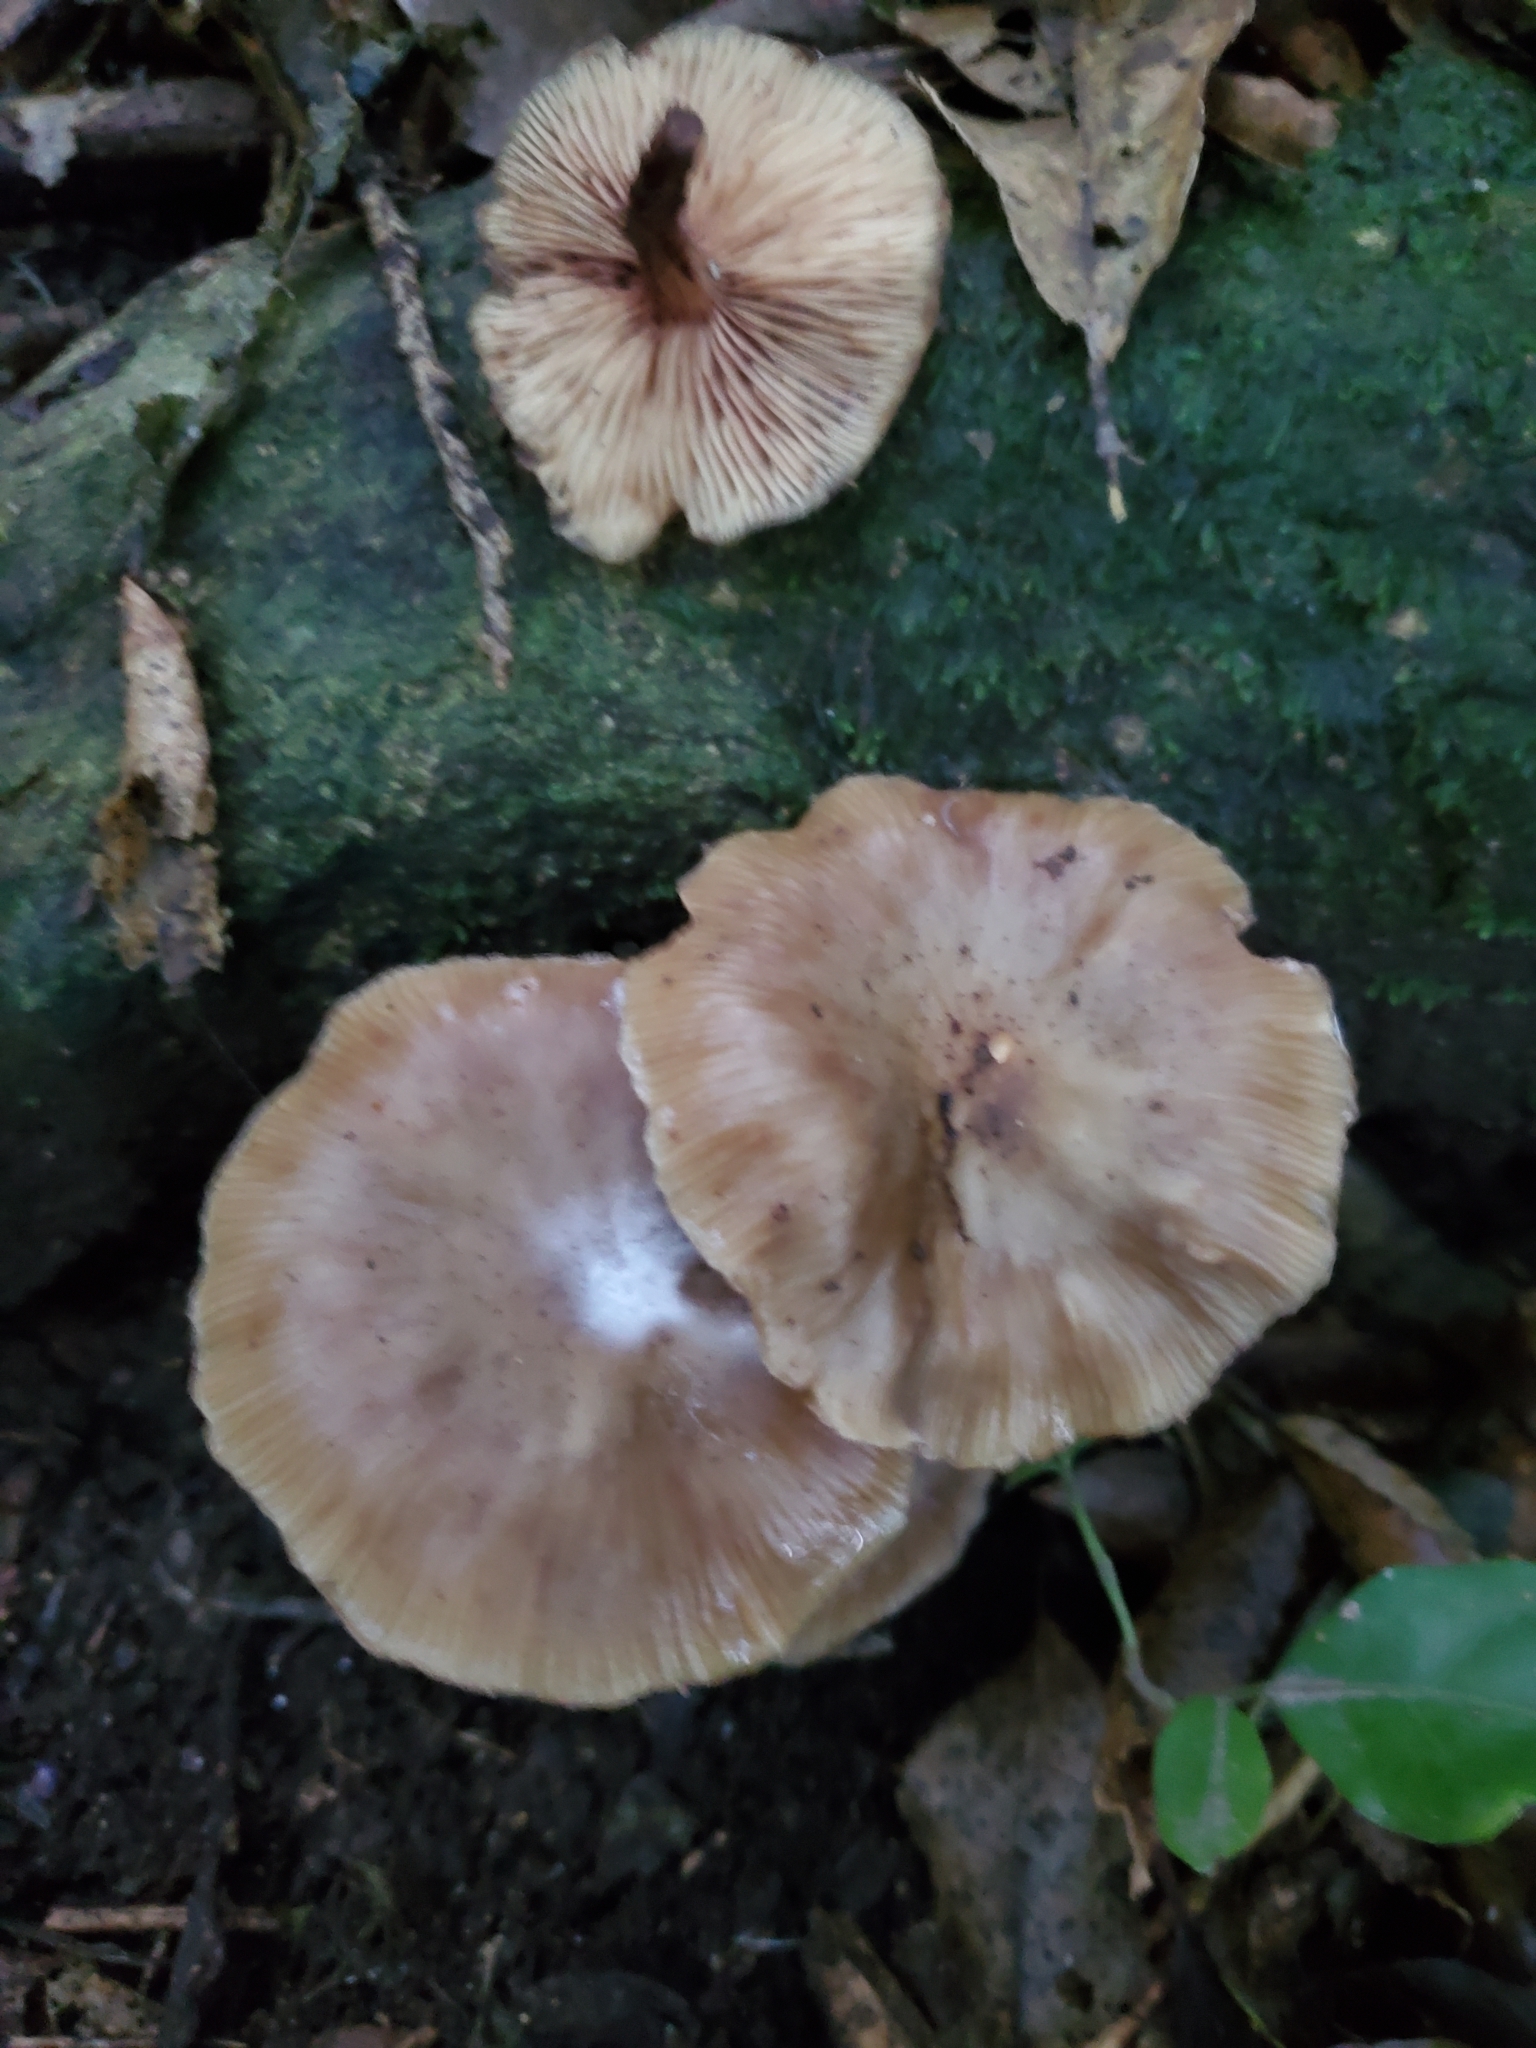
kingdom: Fungi
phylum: Basidiomycota
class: Agaricomycetes
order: Agaricales
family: Physalacriaceae
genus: Armillaria
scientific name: Armillaria novae-zelandiae
